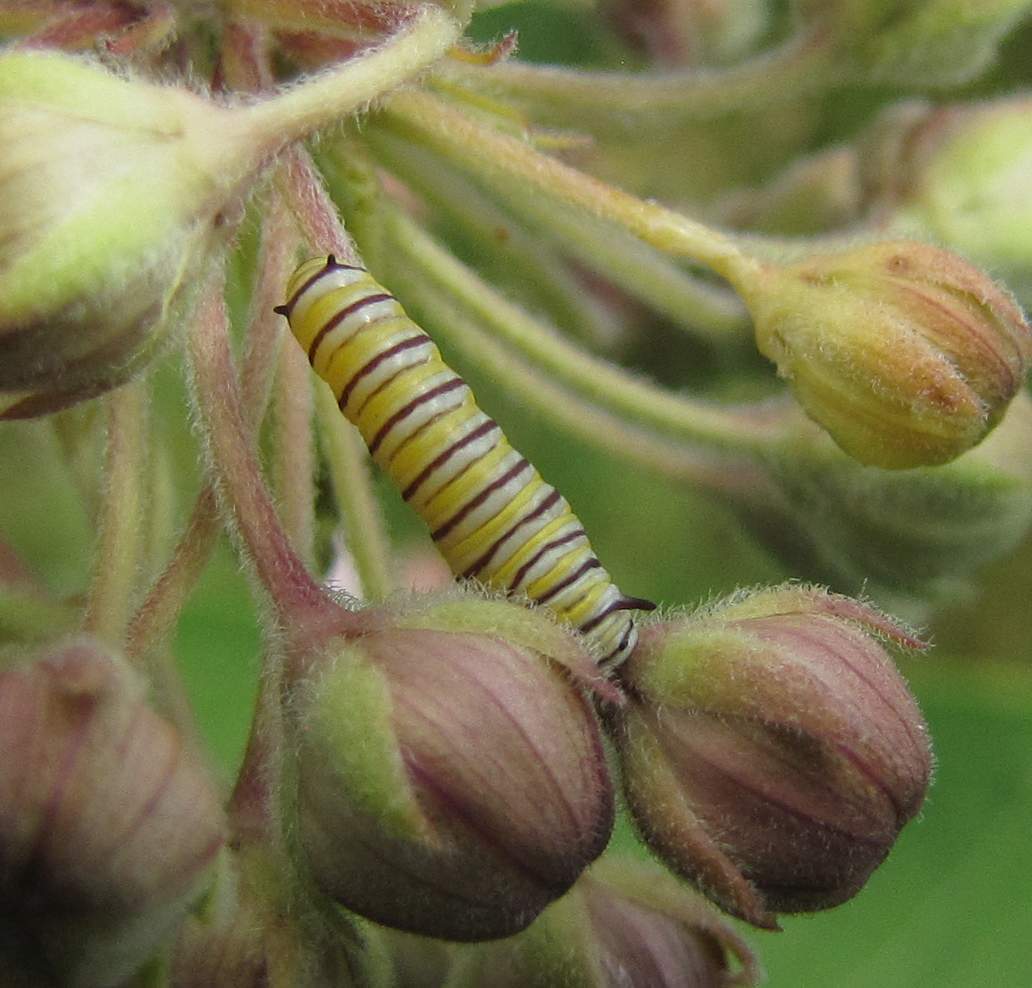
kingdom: Animalia
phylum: Arthropoda
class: Insecta
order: Lepidoptera
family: Nymphalidae
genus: Danaus
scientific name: Danaus plexippus
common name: Monarch
